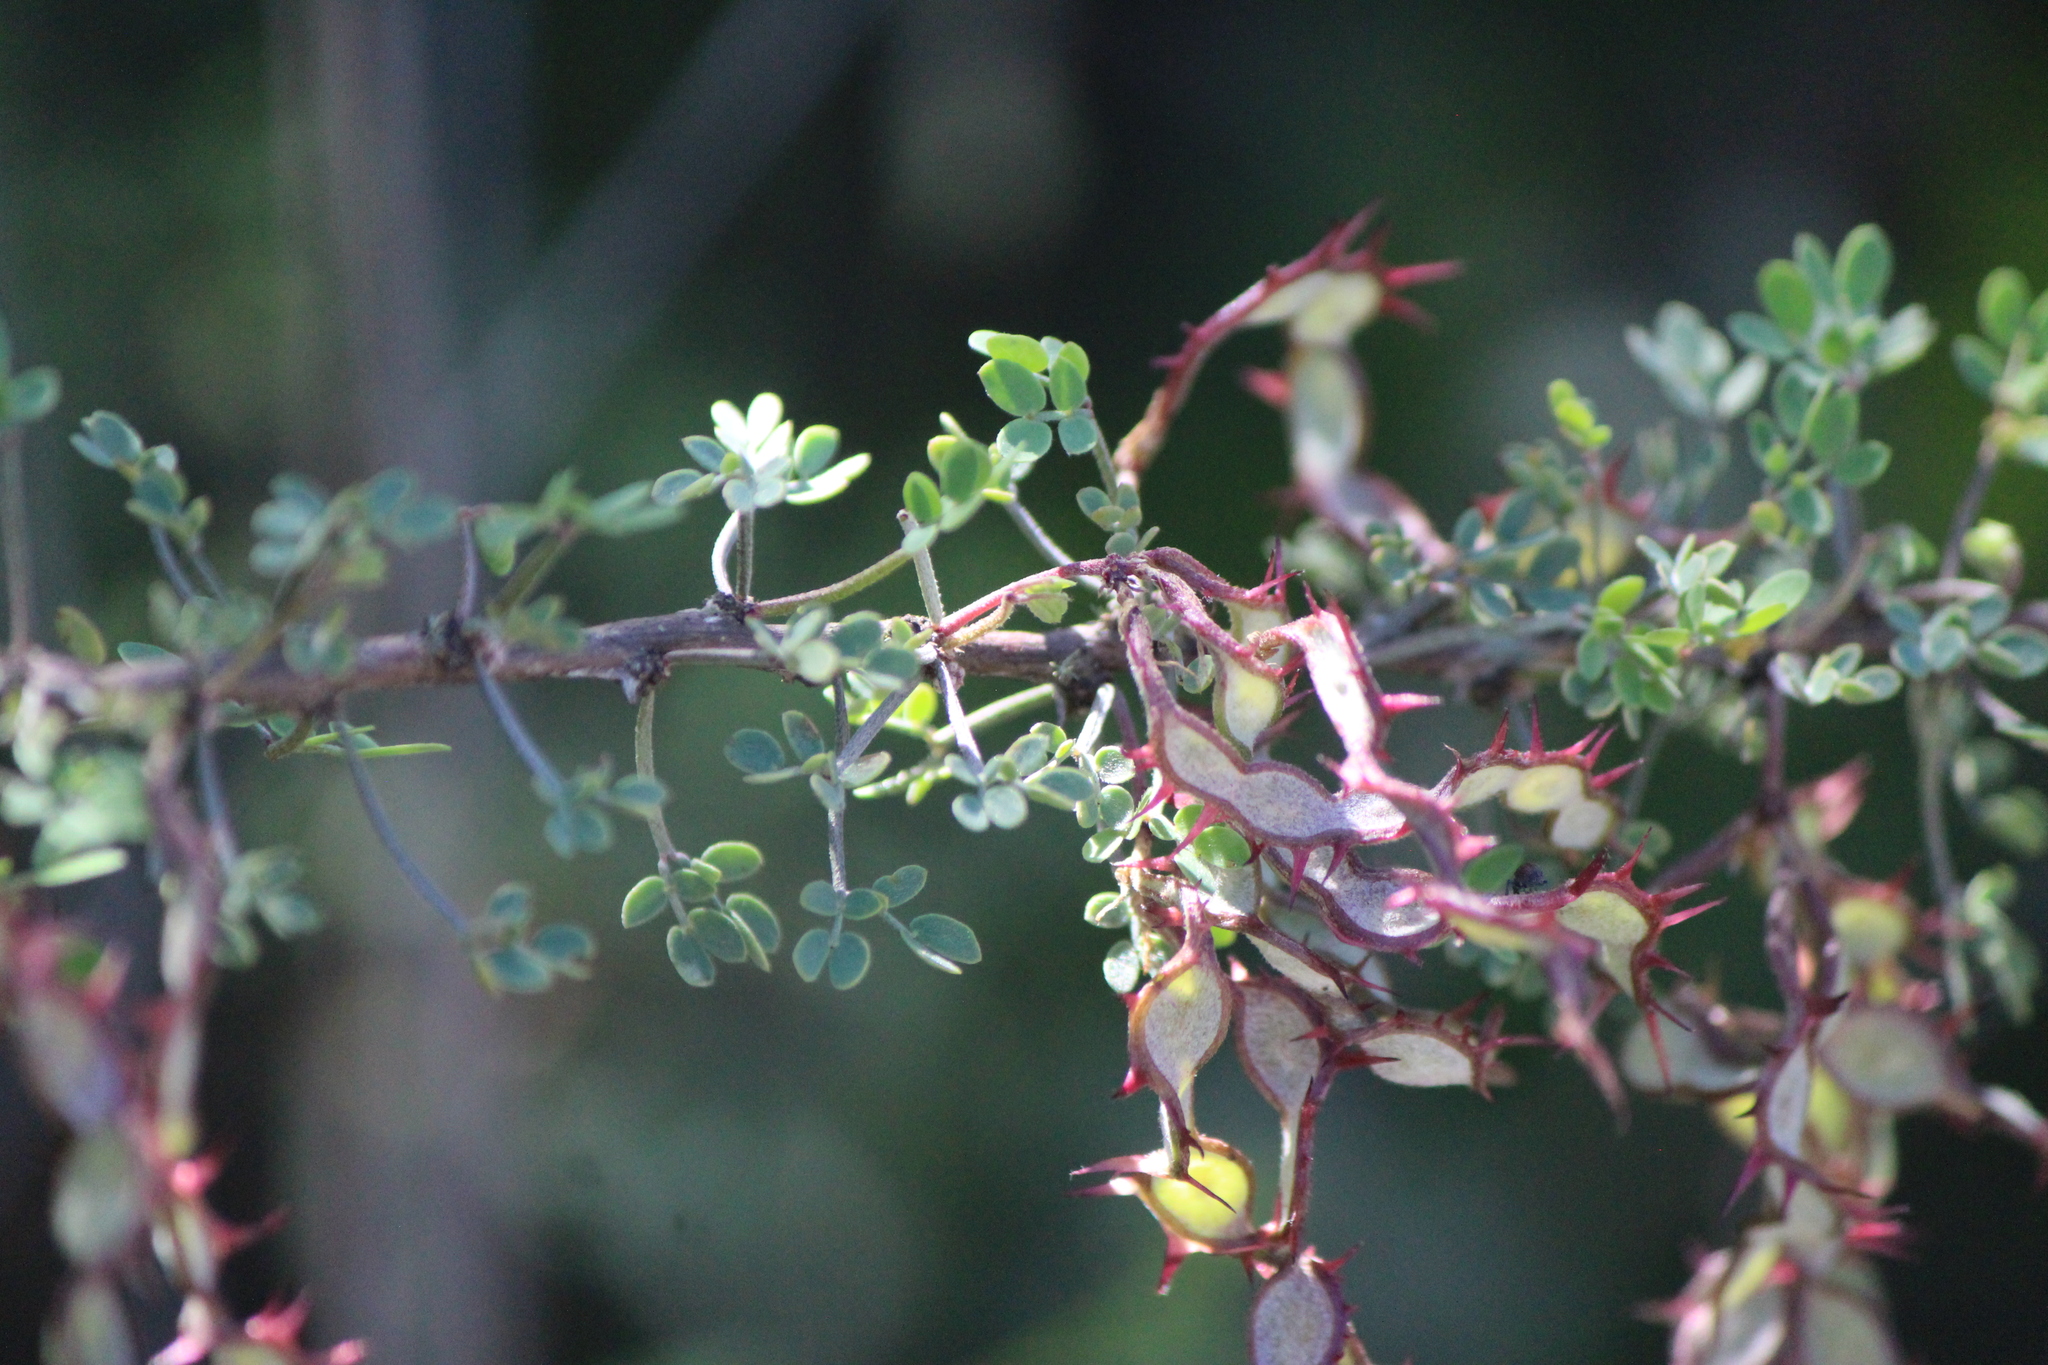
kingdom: Plantae
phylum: Tracheophyta
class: Magnoliopsida
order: Fabales
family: Fabaceae
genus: Mimosa
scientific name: Mimosa depauperata
